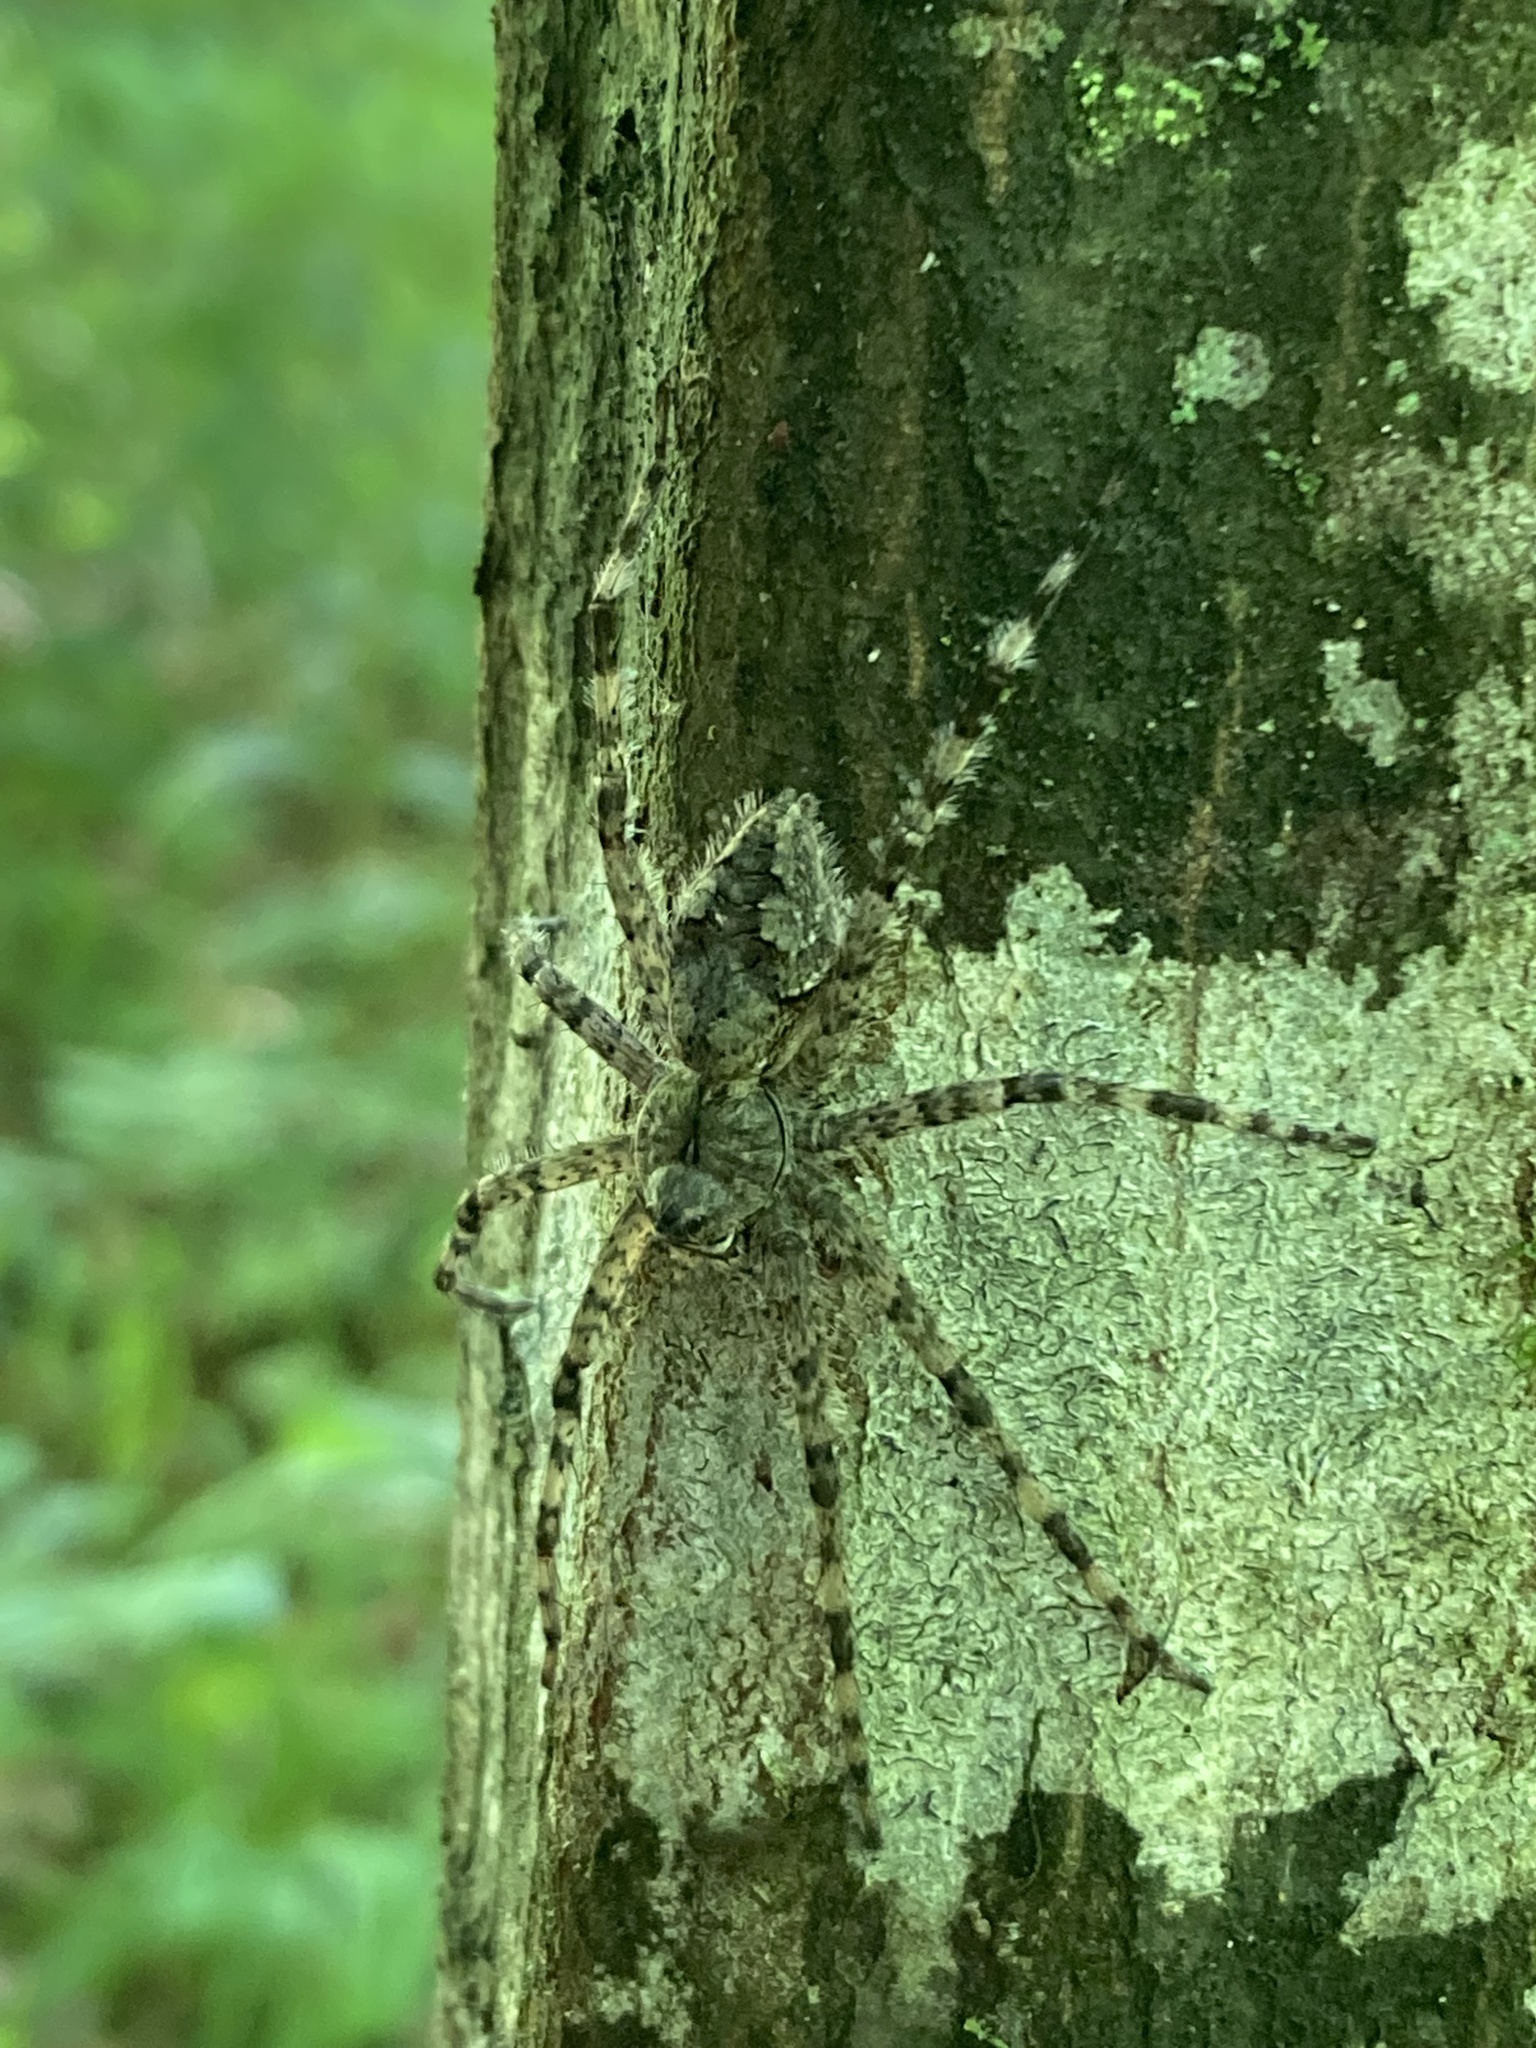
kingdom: Animalia
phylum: Arthropoda
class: Arachnida
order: Araneae
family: Pisauridae
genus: Dolomedes
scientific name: Dolomedes albineus
